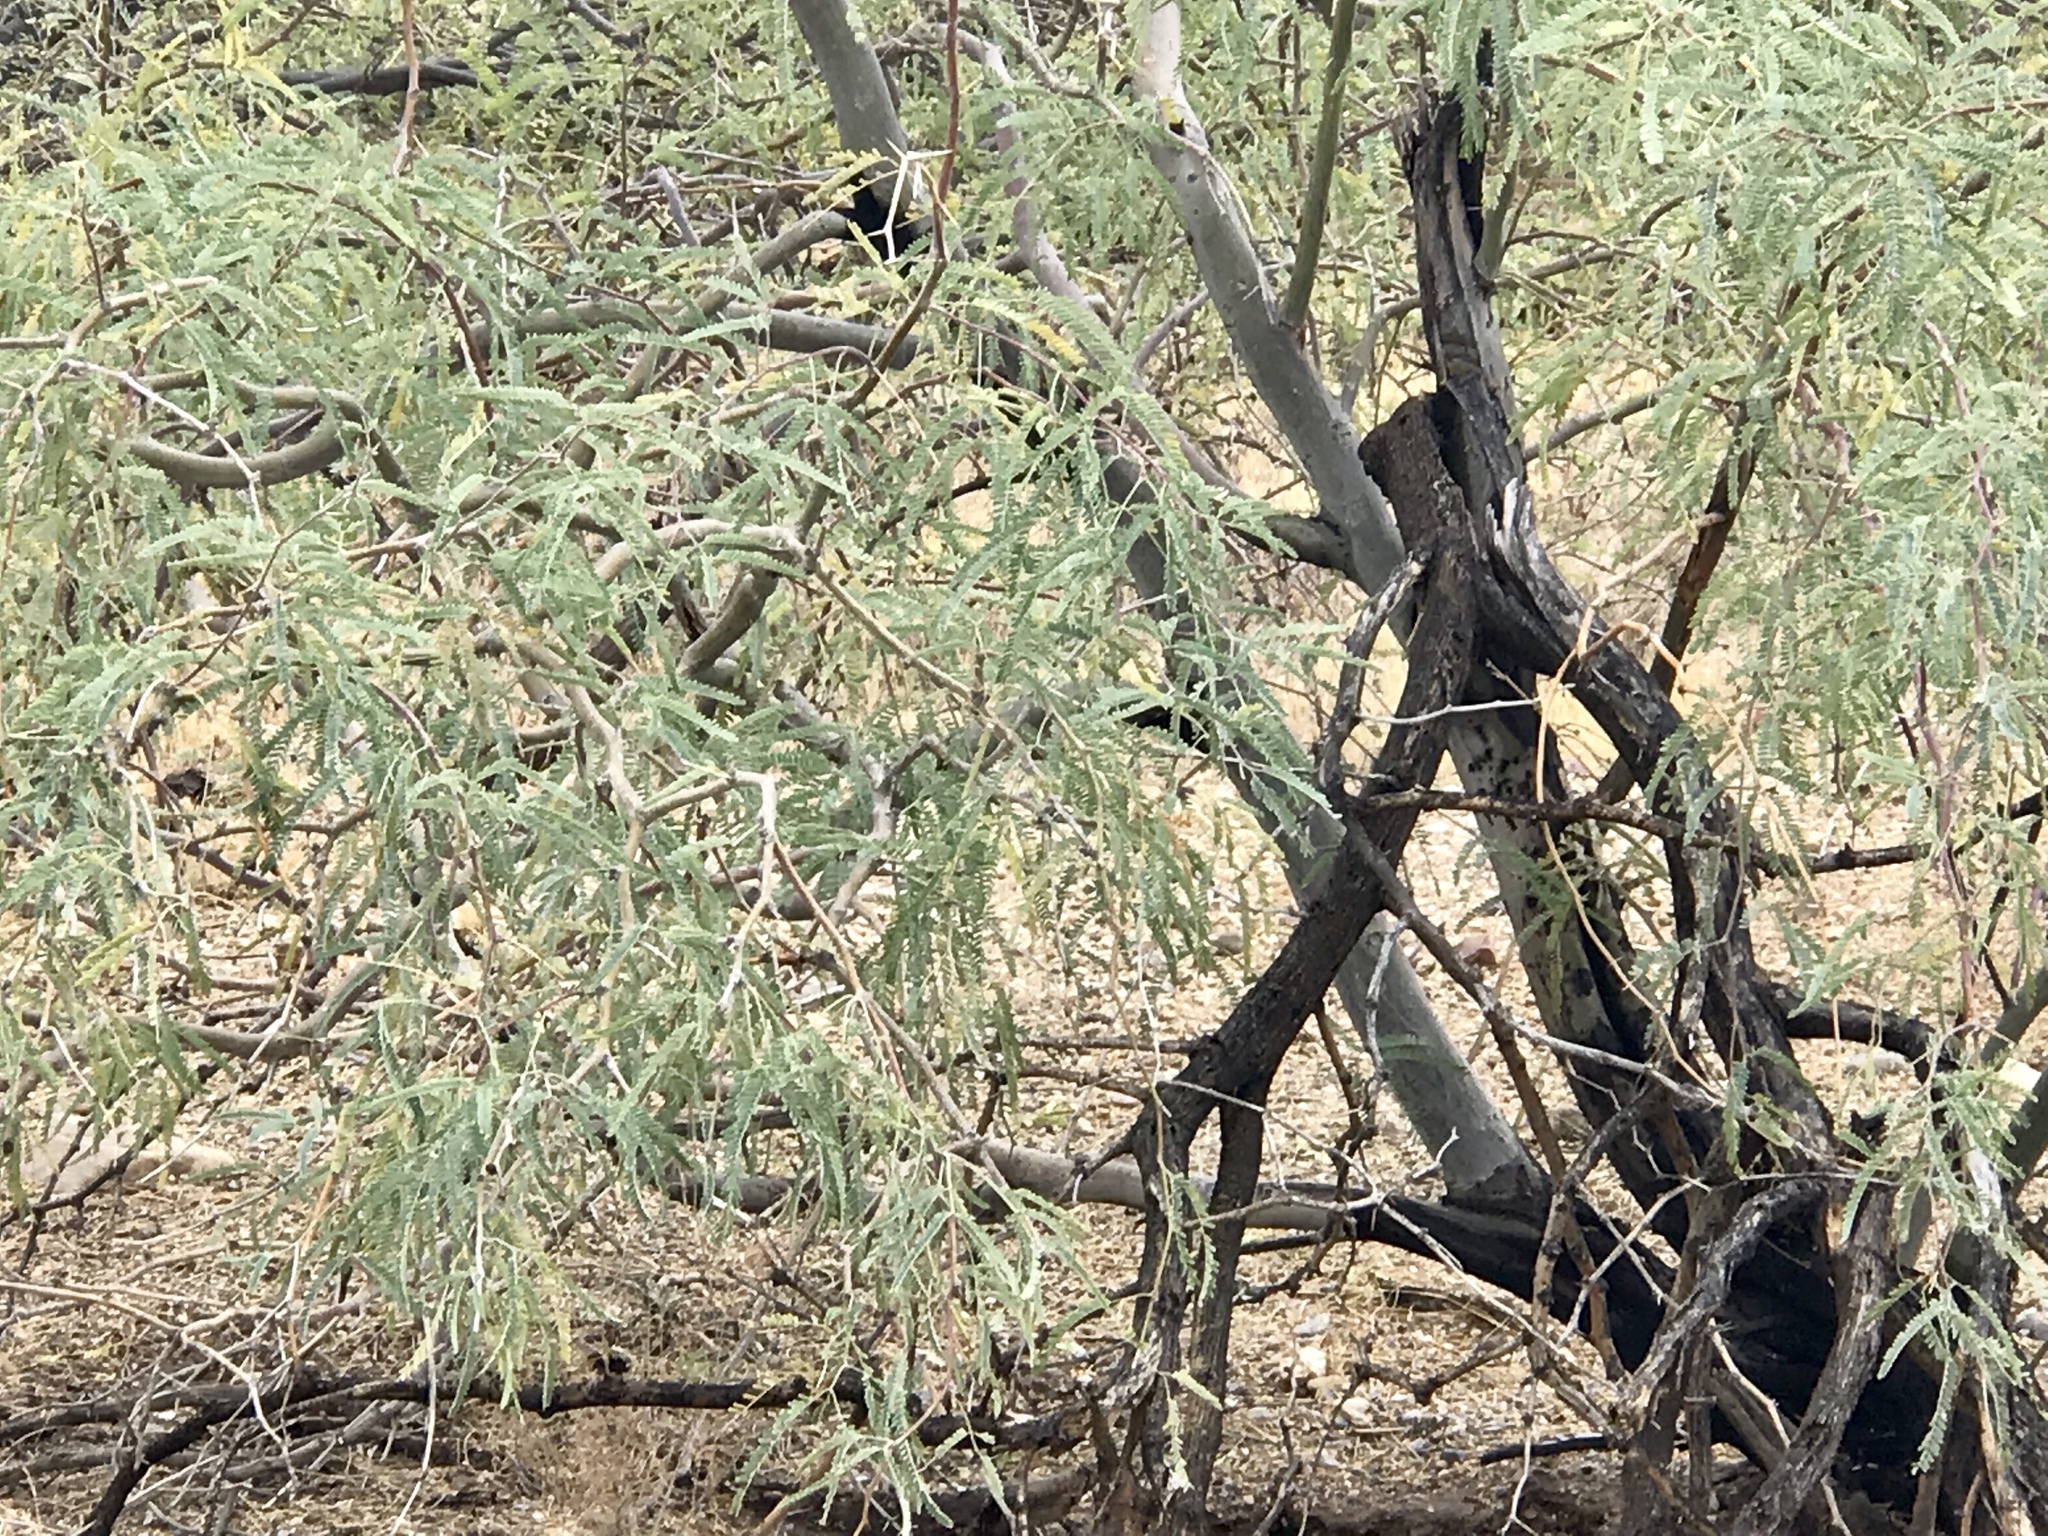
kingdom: Plantae
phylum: Tracheophyta
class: Magnoliopsida
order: Fabales
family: Fabaceae
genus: Prosopis
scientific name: Prosopis velutina
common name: Velvet mesquite
